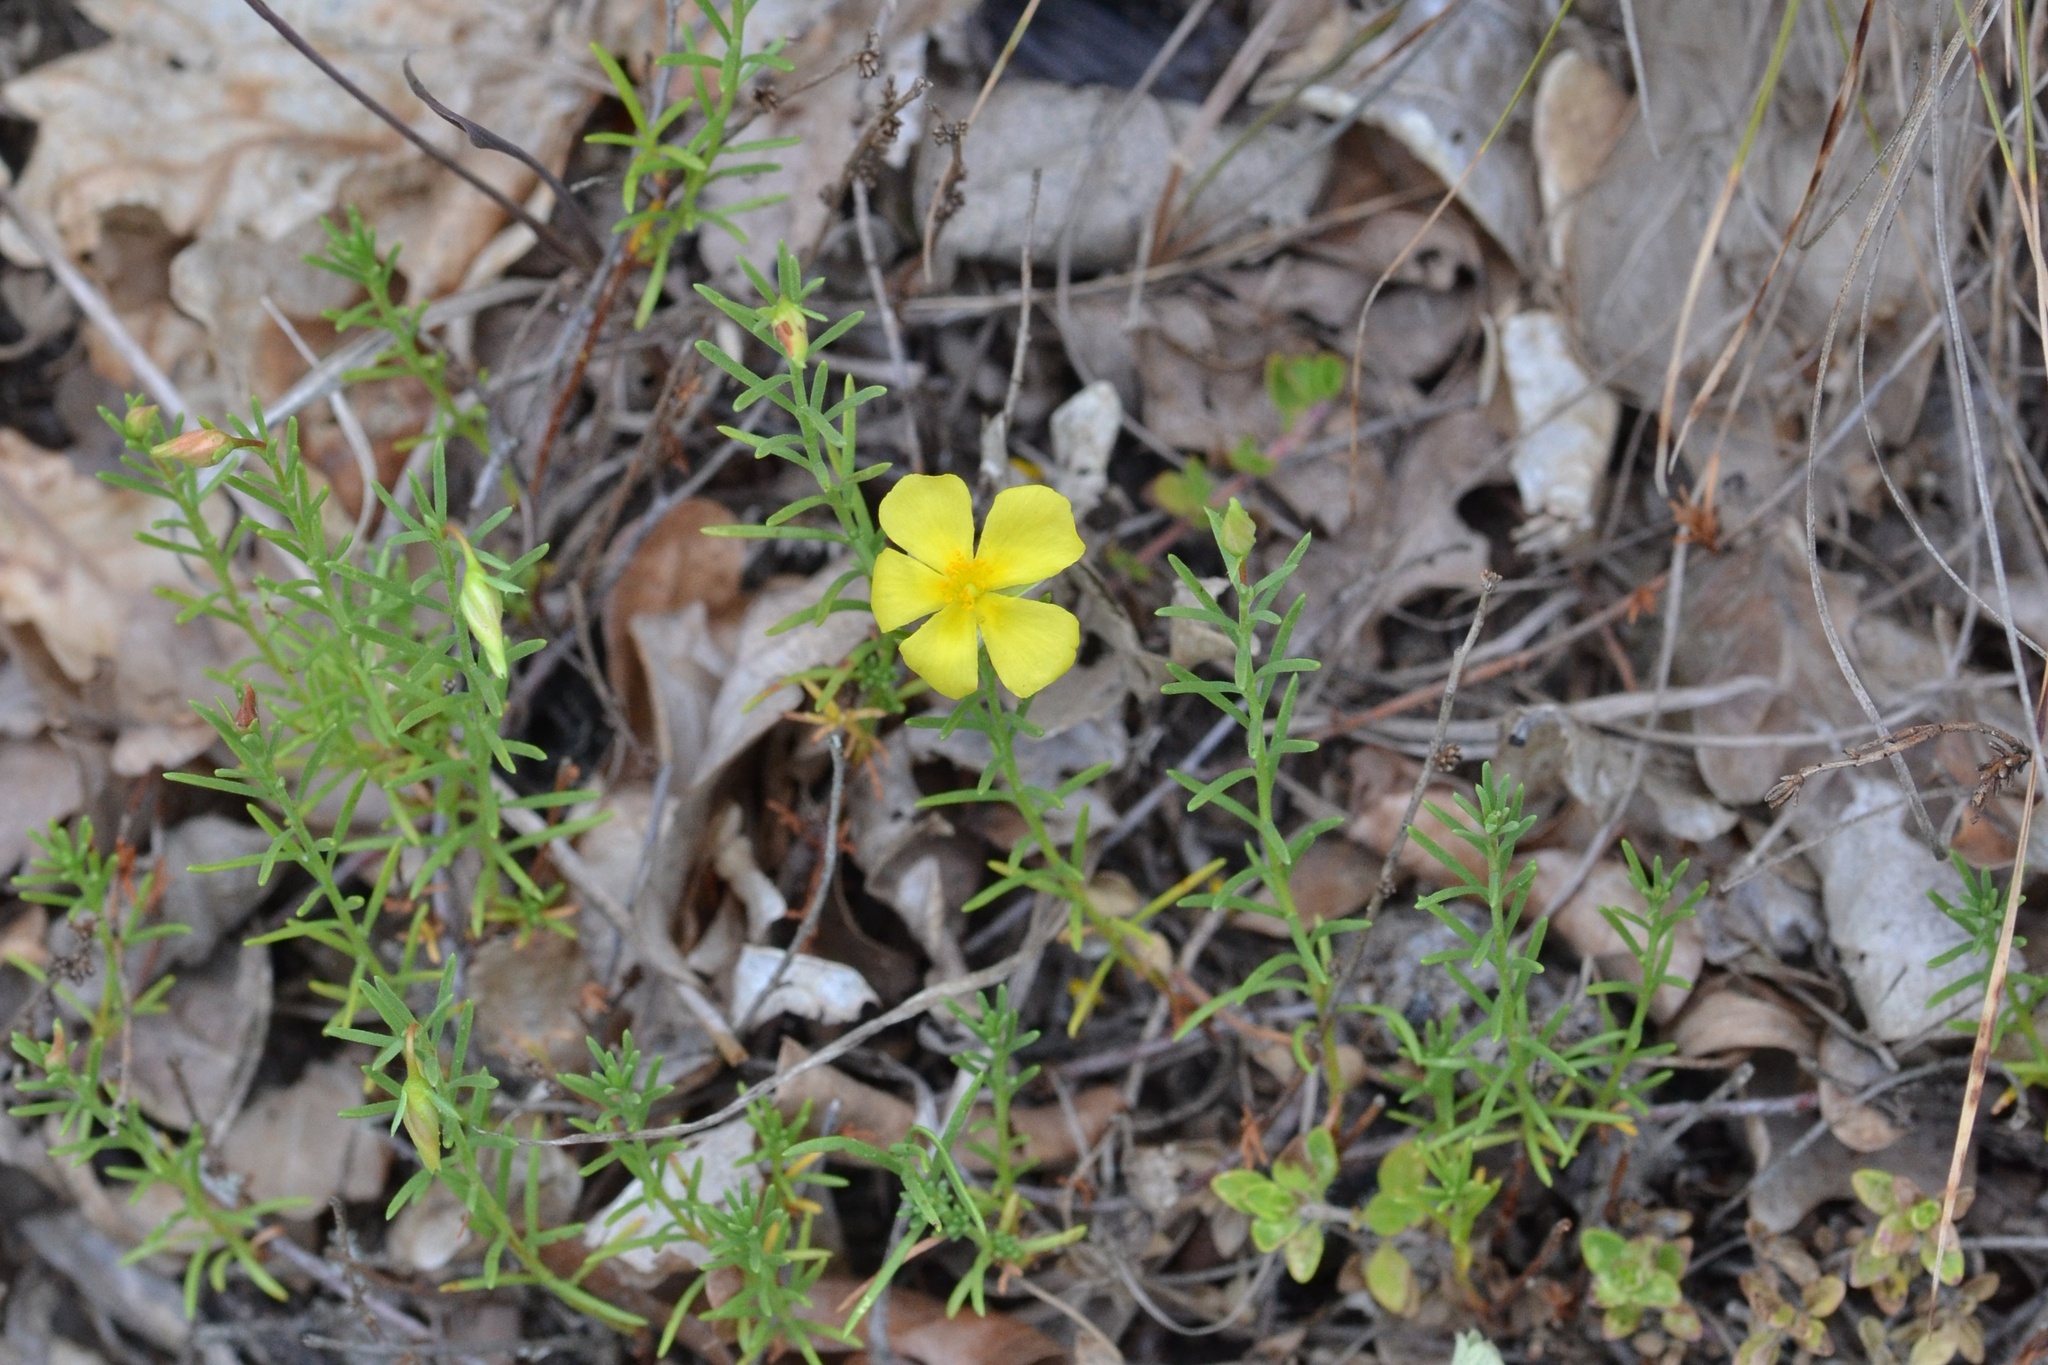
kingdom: Plantae
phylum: Tracheophyta
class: Magnoliopsida
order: Malvales
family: Cistaceae
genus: Fumana
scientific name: Fumana procumbens
